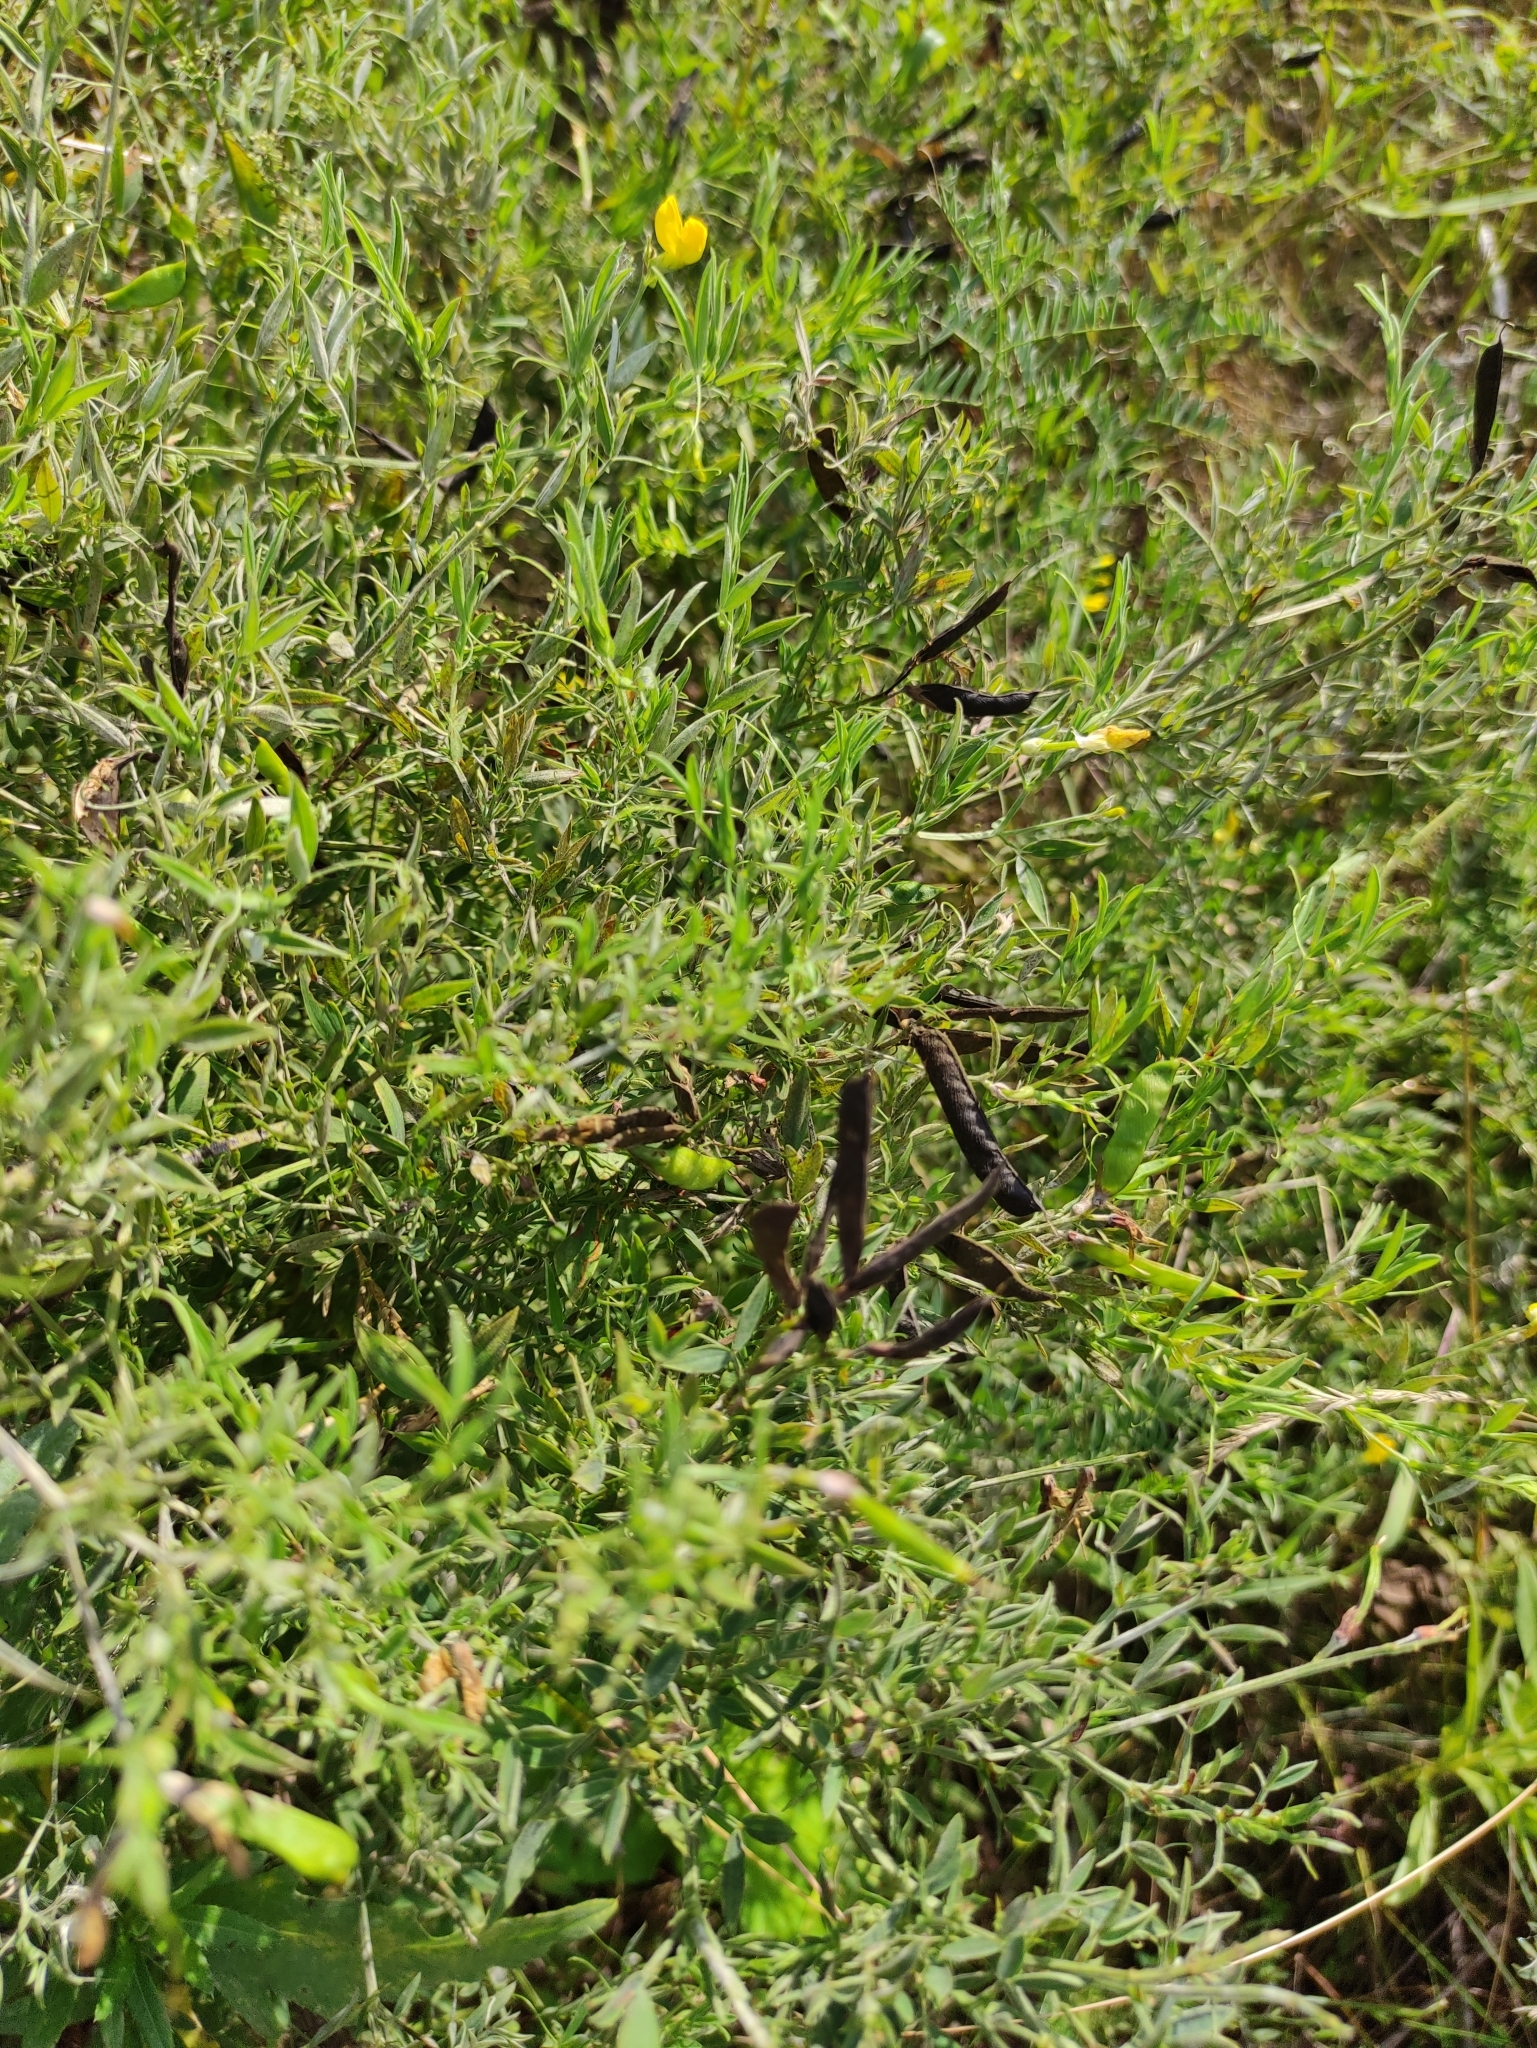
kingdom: Plantae
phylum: Tracheophyta
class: Magnoliopsida
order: Fabales
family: Fabaceae
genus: Lathyrus
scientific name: Lathyrus pratensis
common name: Meadow vetchling
